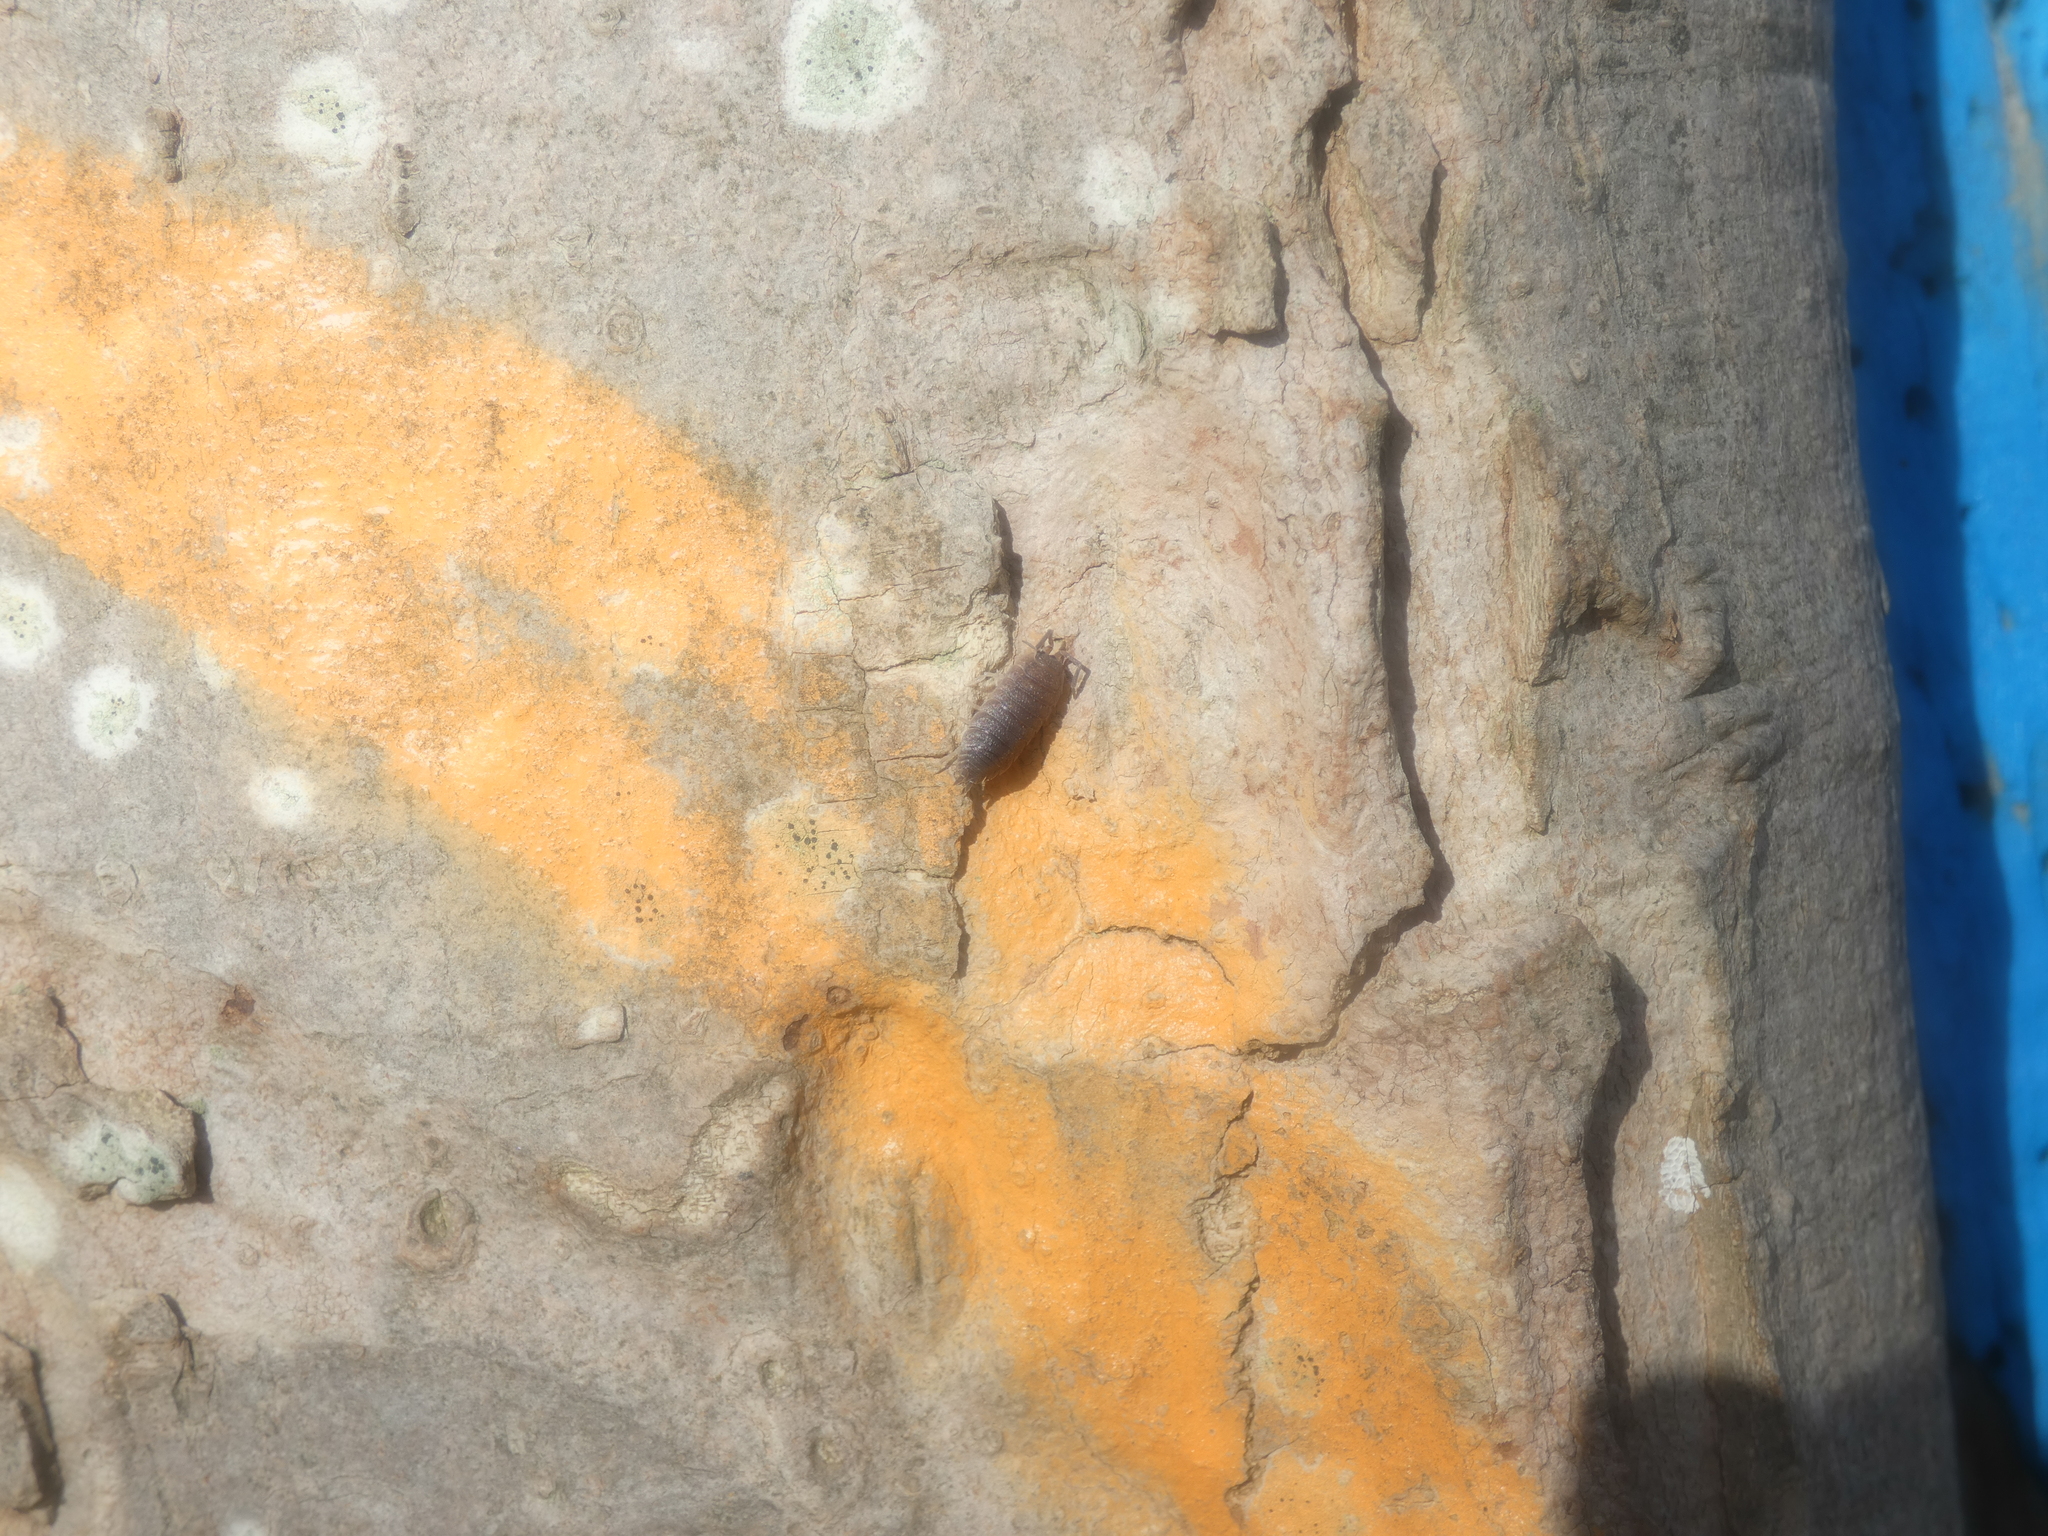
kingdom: Animalia
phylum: Arthropoda
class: Malacostraca
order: Isopoda
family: Porcellionidae
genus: Porcellio
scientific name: Porcellio scaber
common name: Common rough woodlouse
